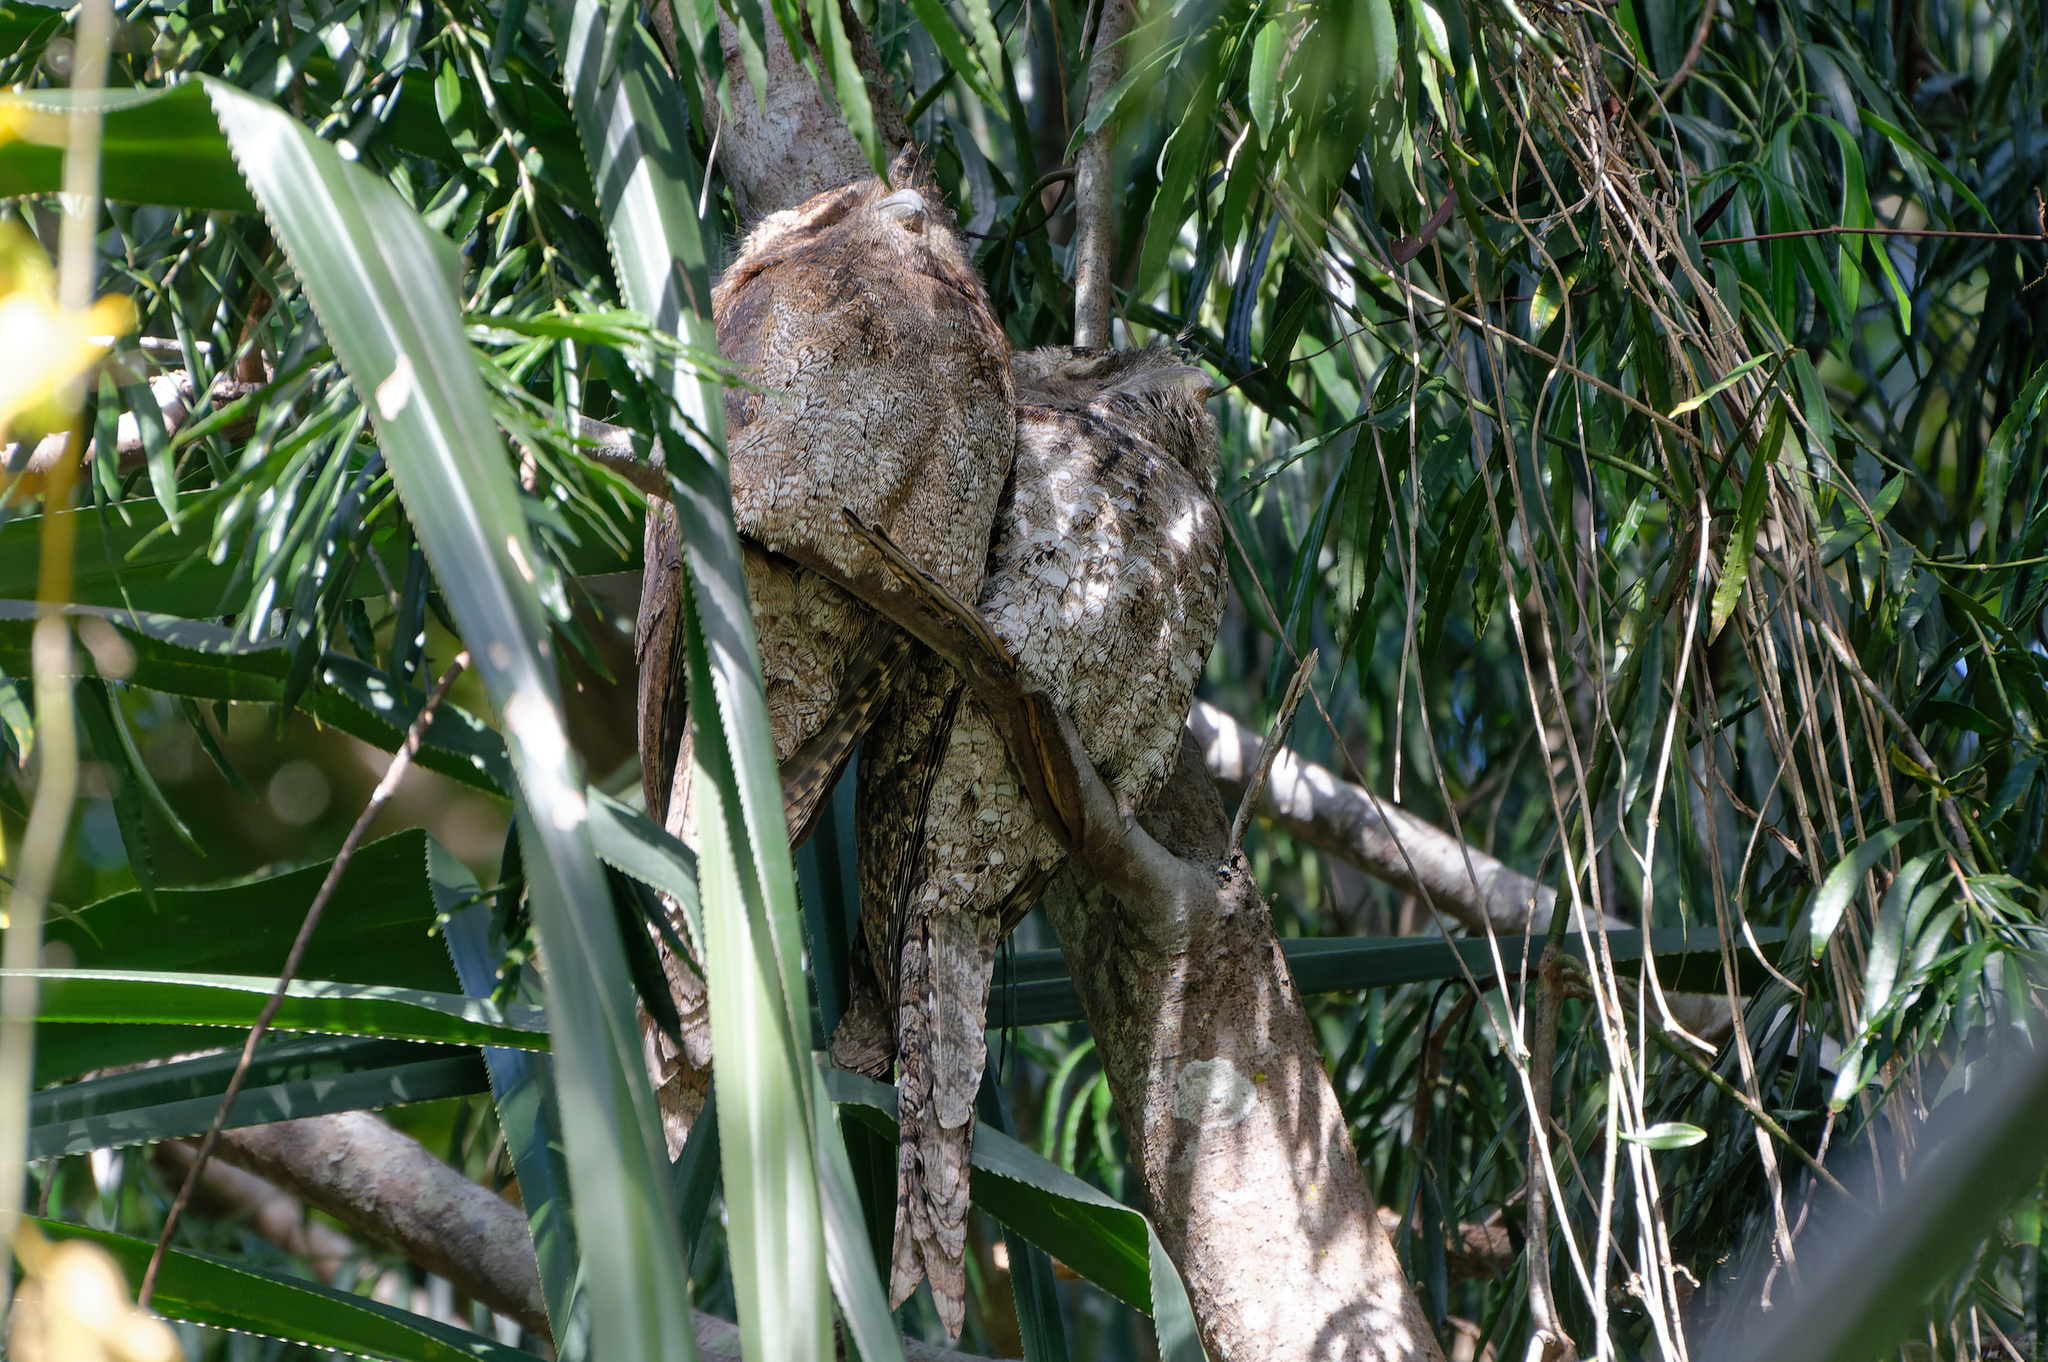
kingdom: Animalia
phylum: Chordata
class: Aves
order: Caprimulgiformes
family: Podargidae
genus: Podargus
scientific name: Podargus papuensis
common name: Papuan frogmouth
